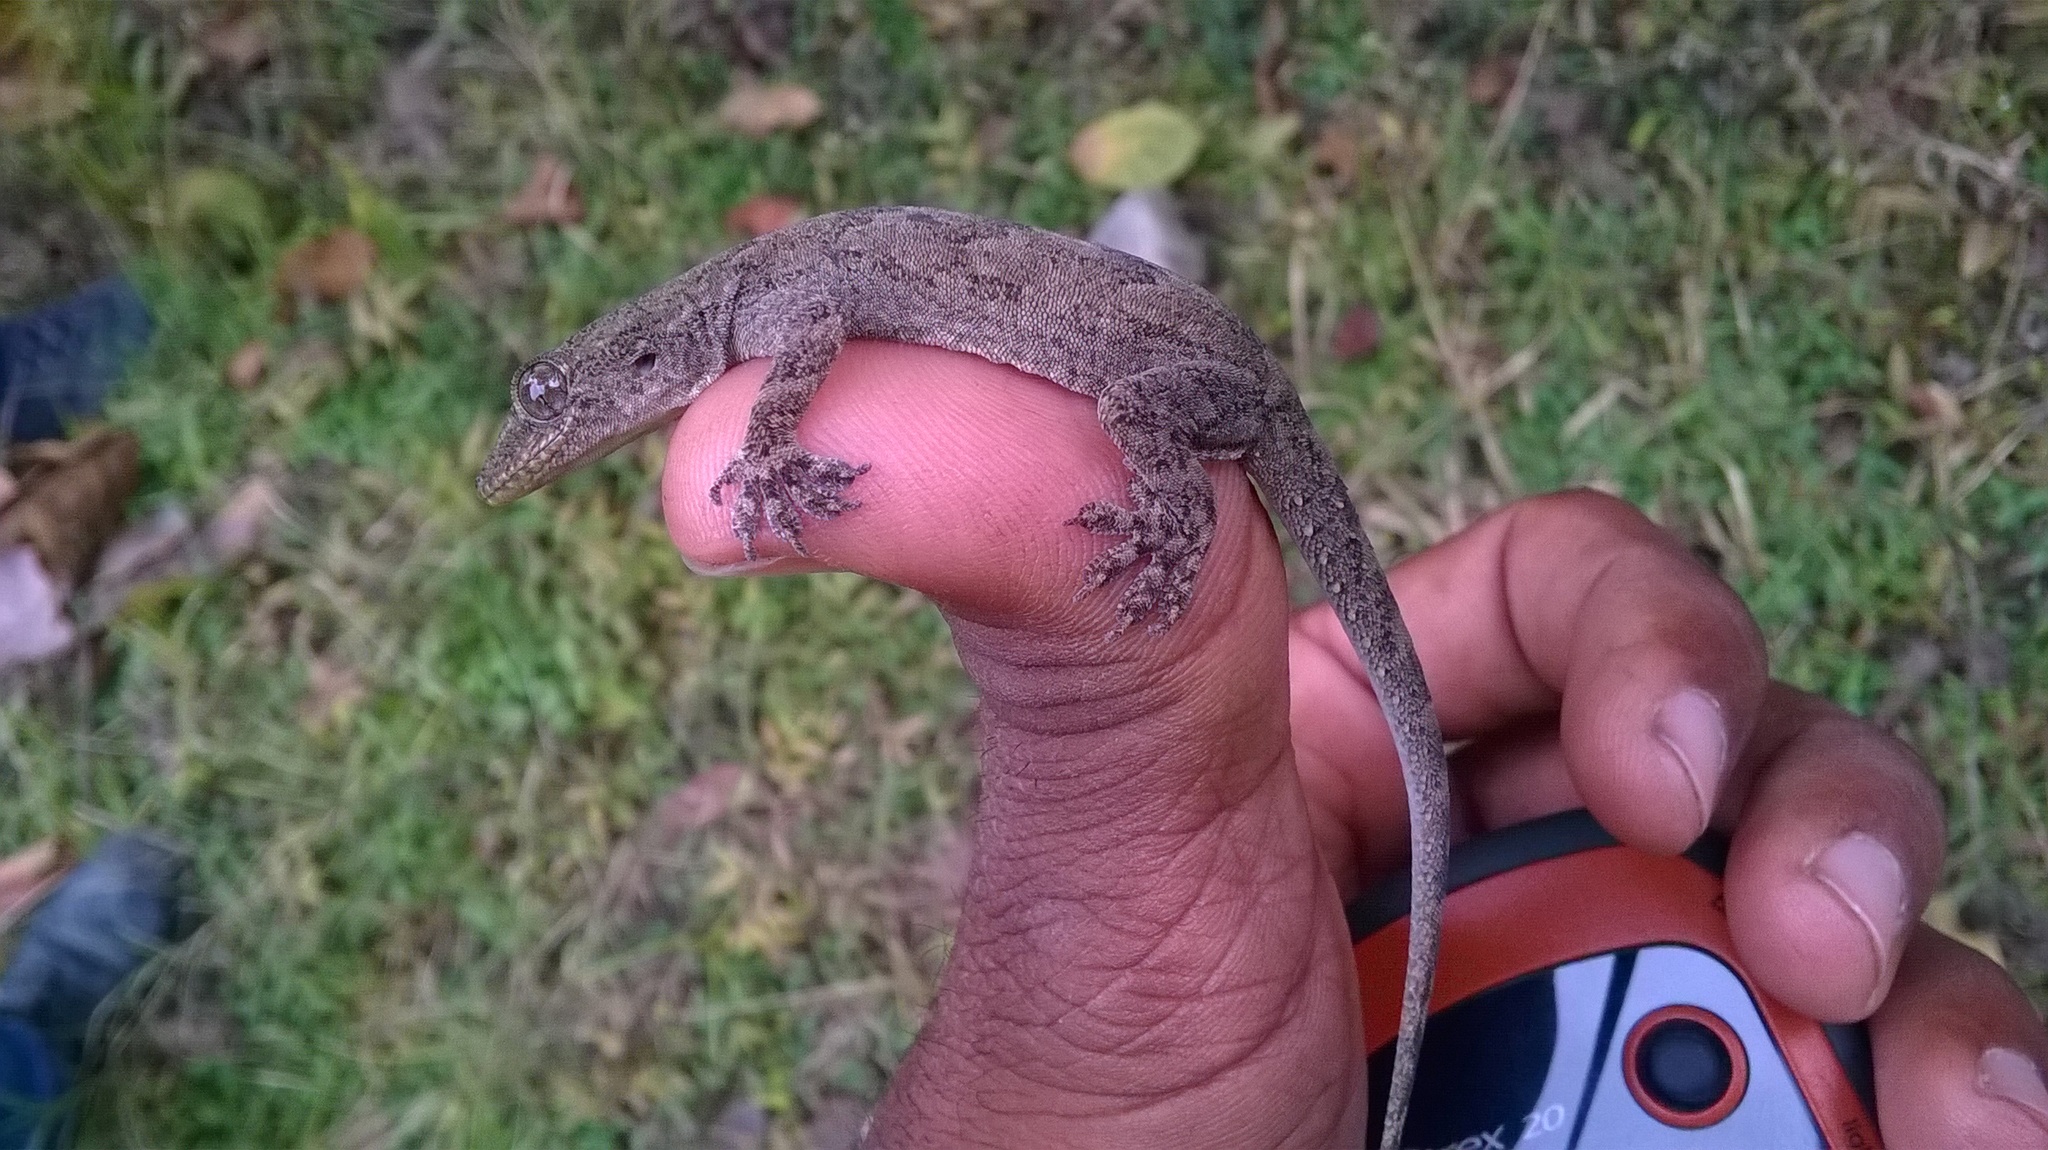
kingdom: Animalia
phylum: Chordata
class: Squamata
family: Gekkonidae
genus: Hemidactylus
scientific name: Hemidactylus flaviviridis
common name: Northern house gecko
